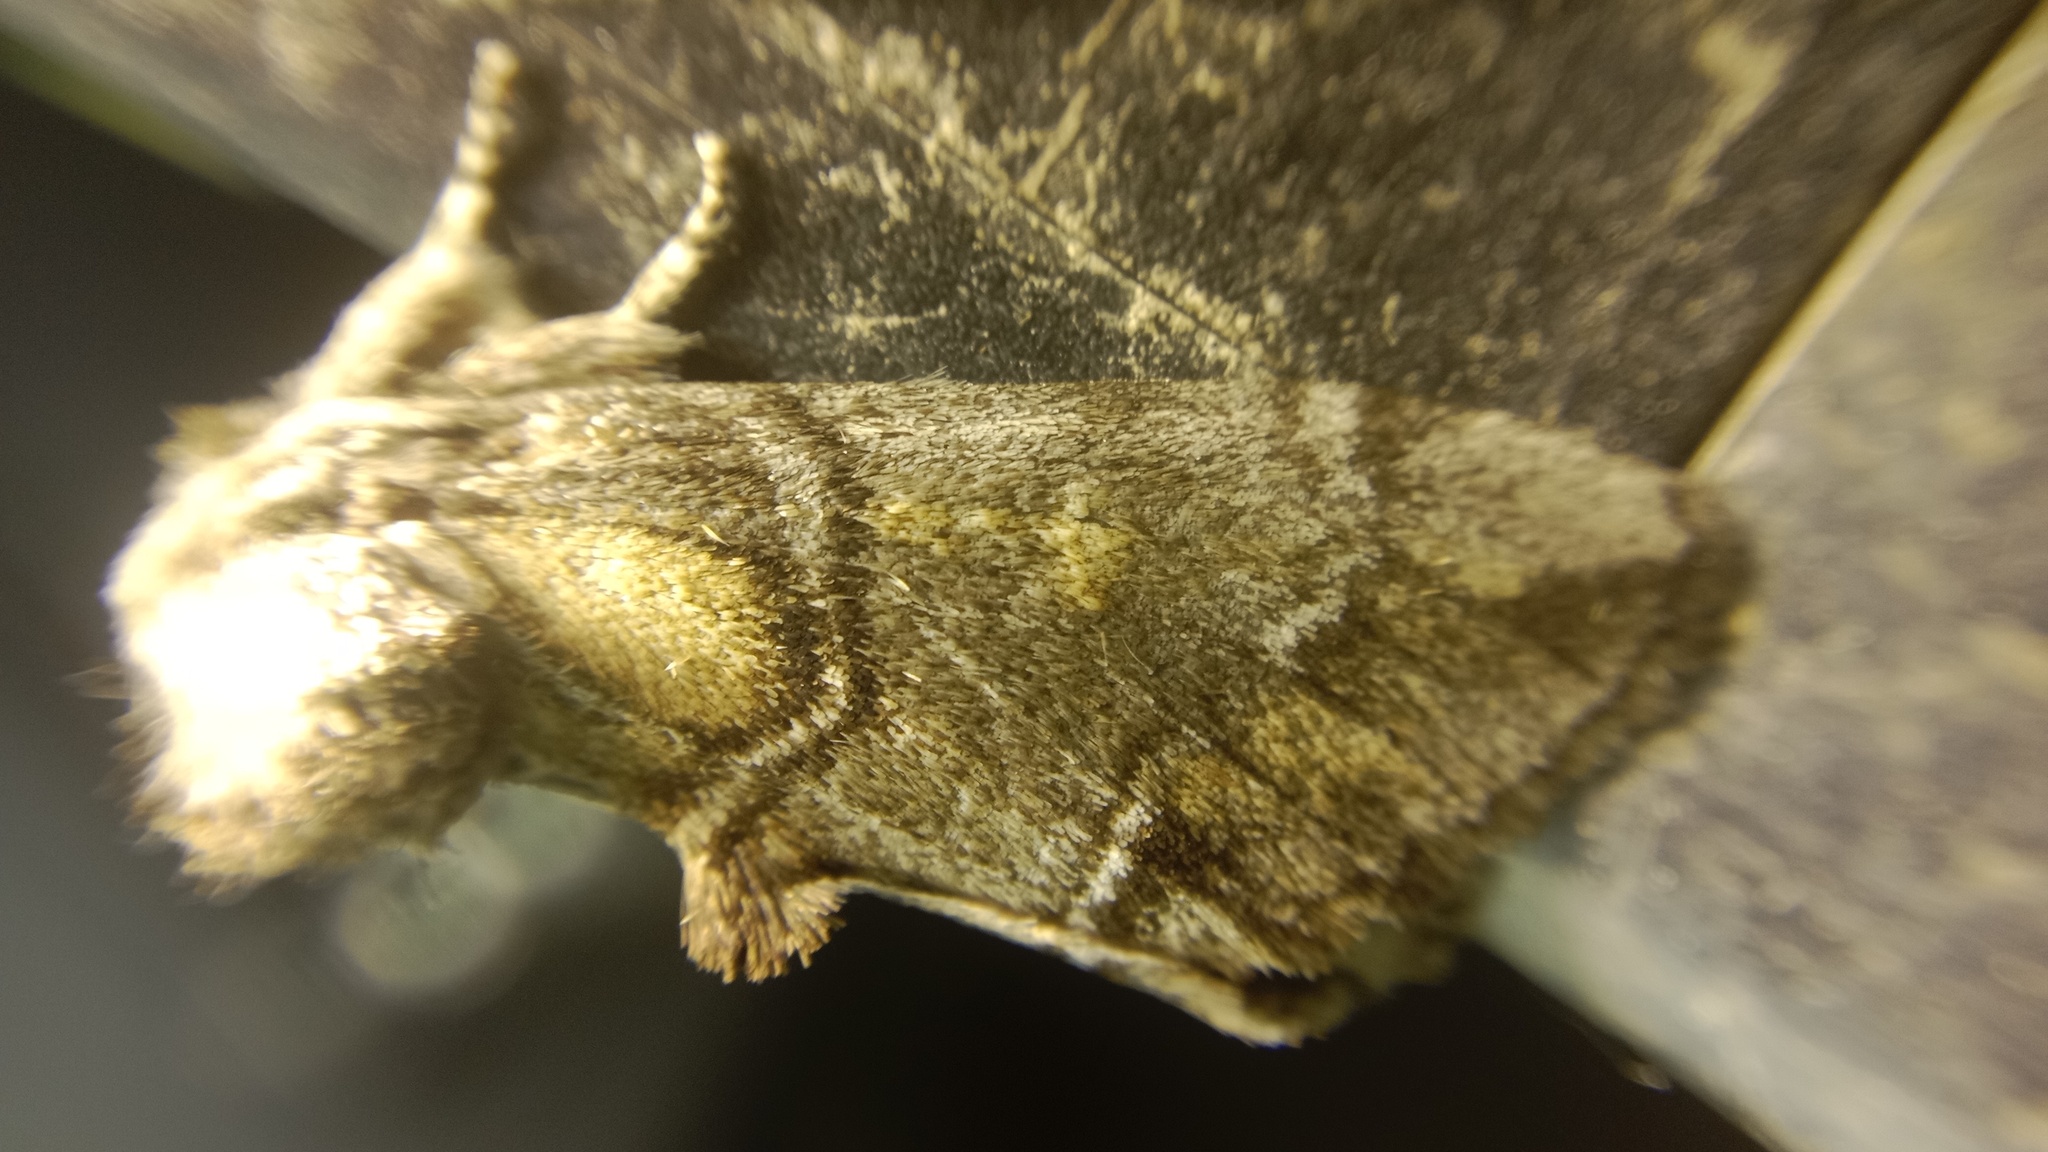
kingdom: Animalia
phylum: Arthropoda
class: Insecta
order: Lepidoptera
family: Notodontidae
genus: Drymonia
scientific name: Drymonia velitaris
